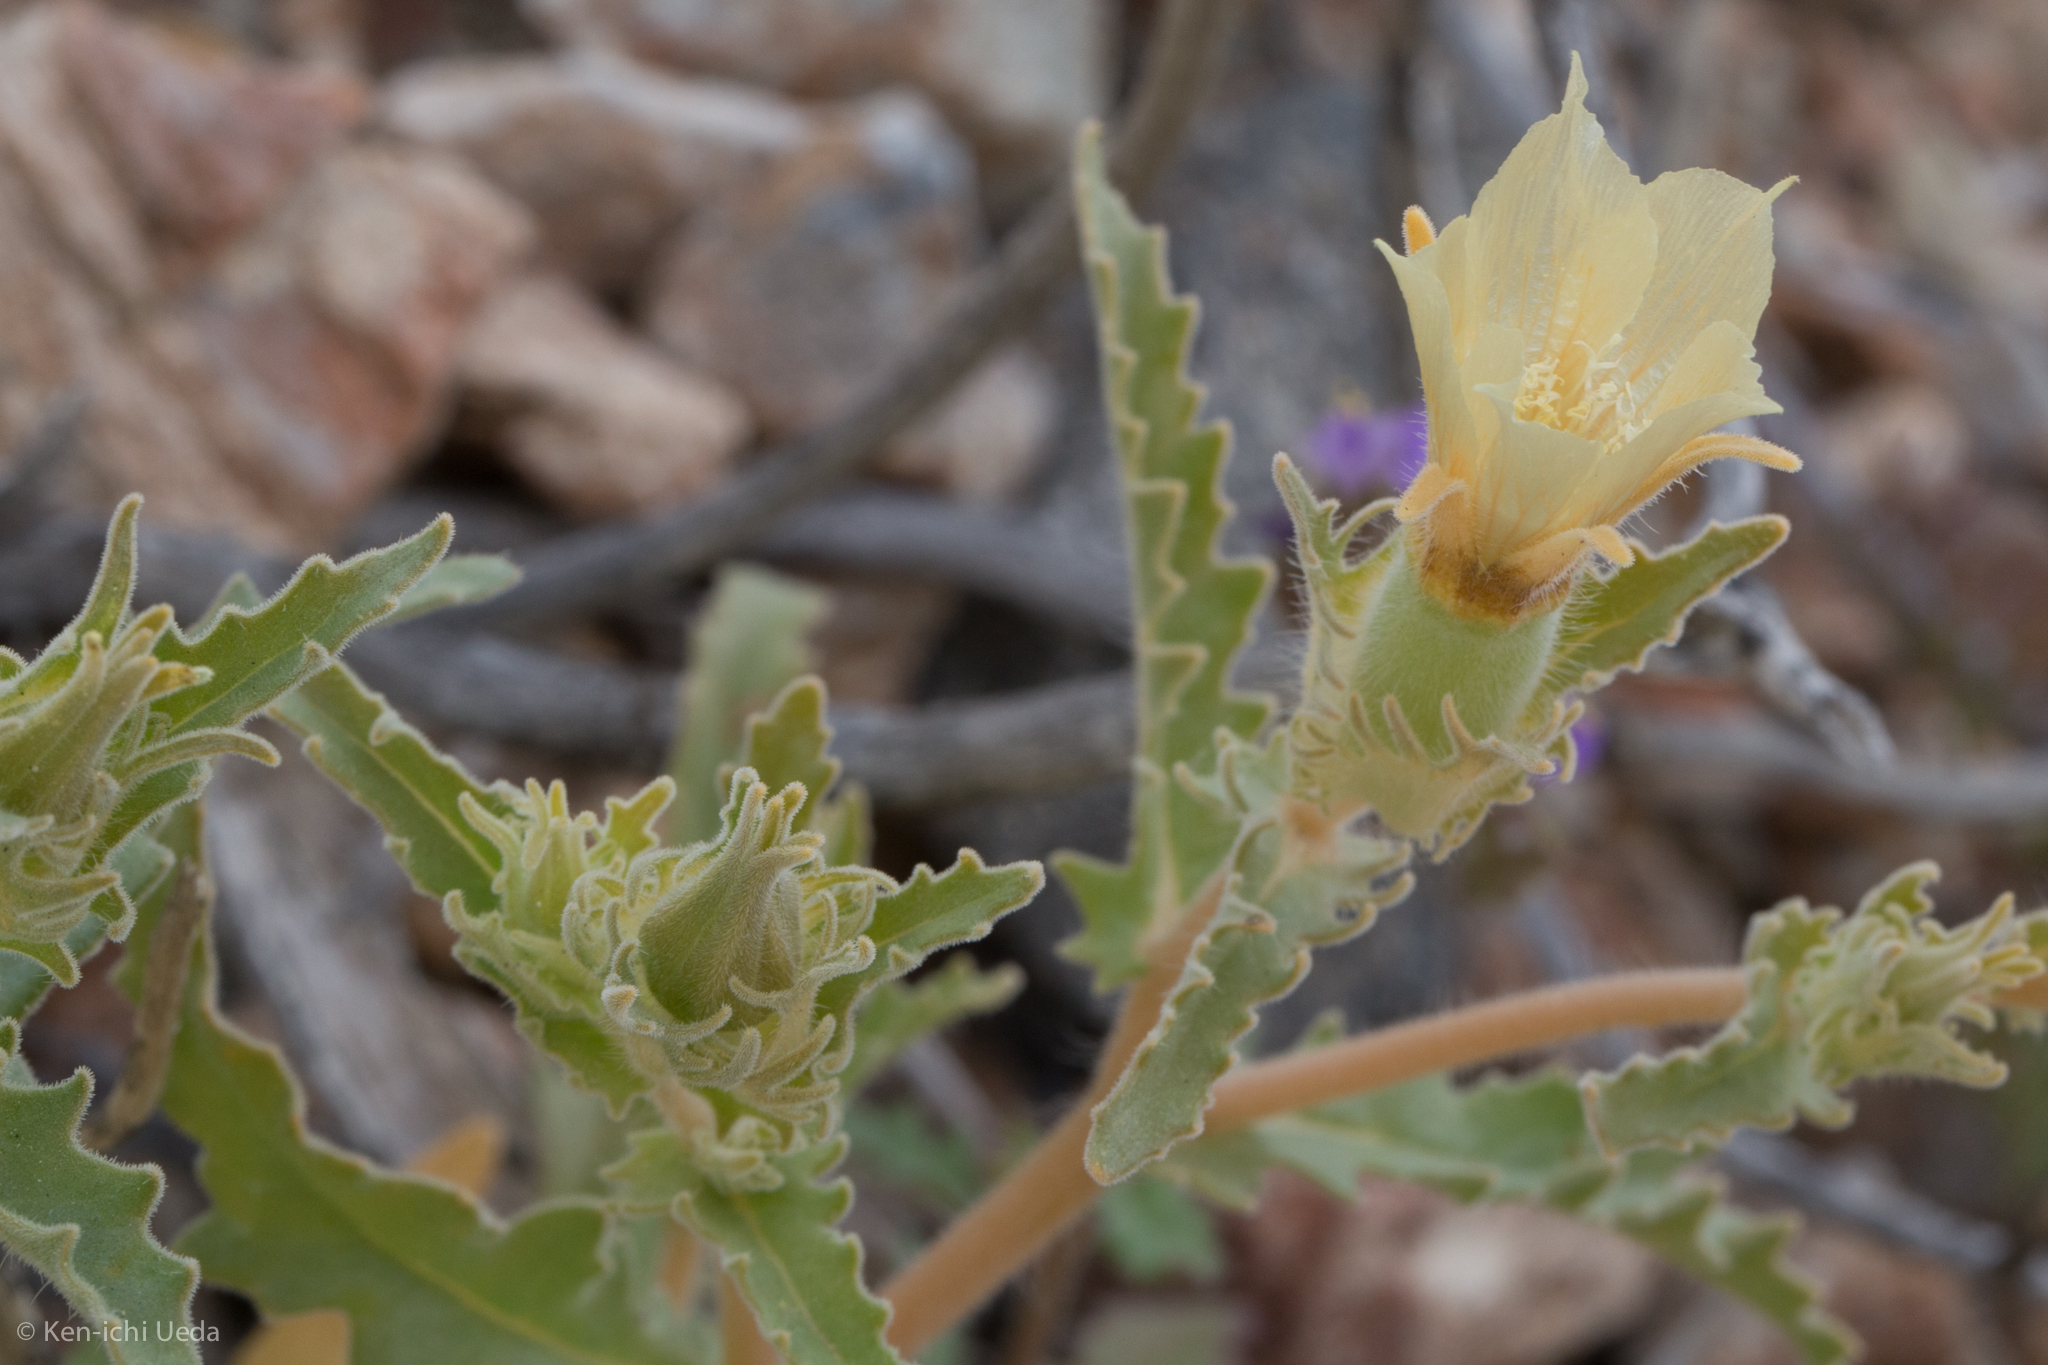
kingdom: Plantae
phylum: Tracheophyta
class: Magnoliopsida
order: Cornales
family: Loasaceae
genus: Mentzelia
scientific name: Mentzelia involucrata
